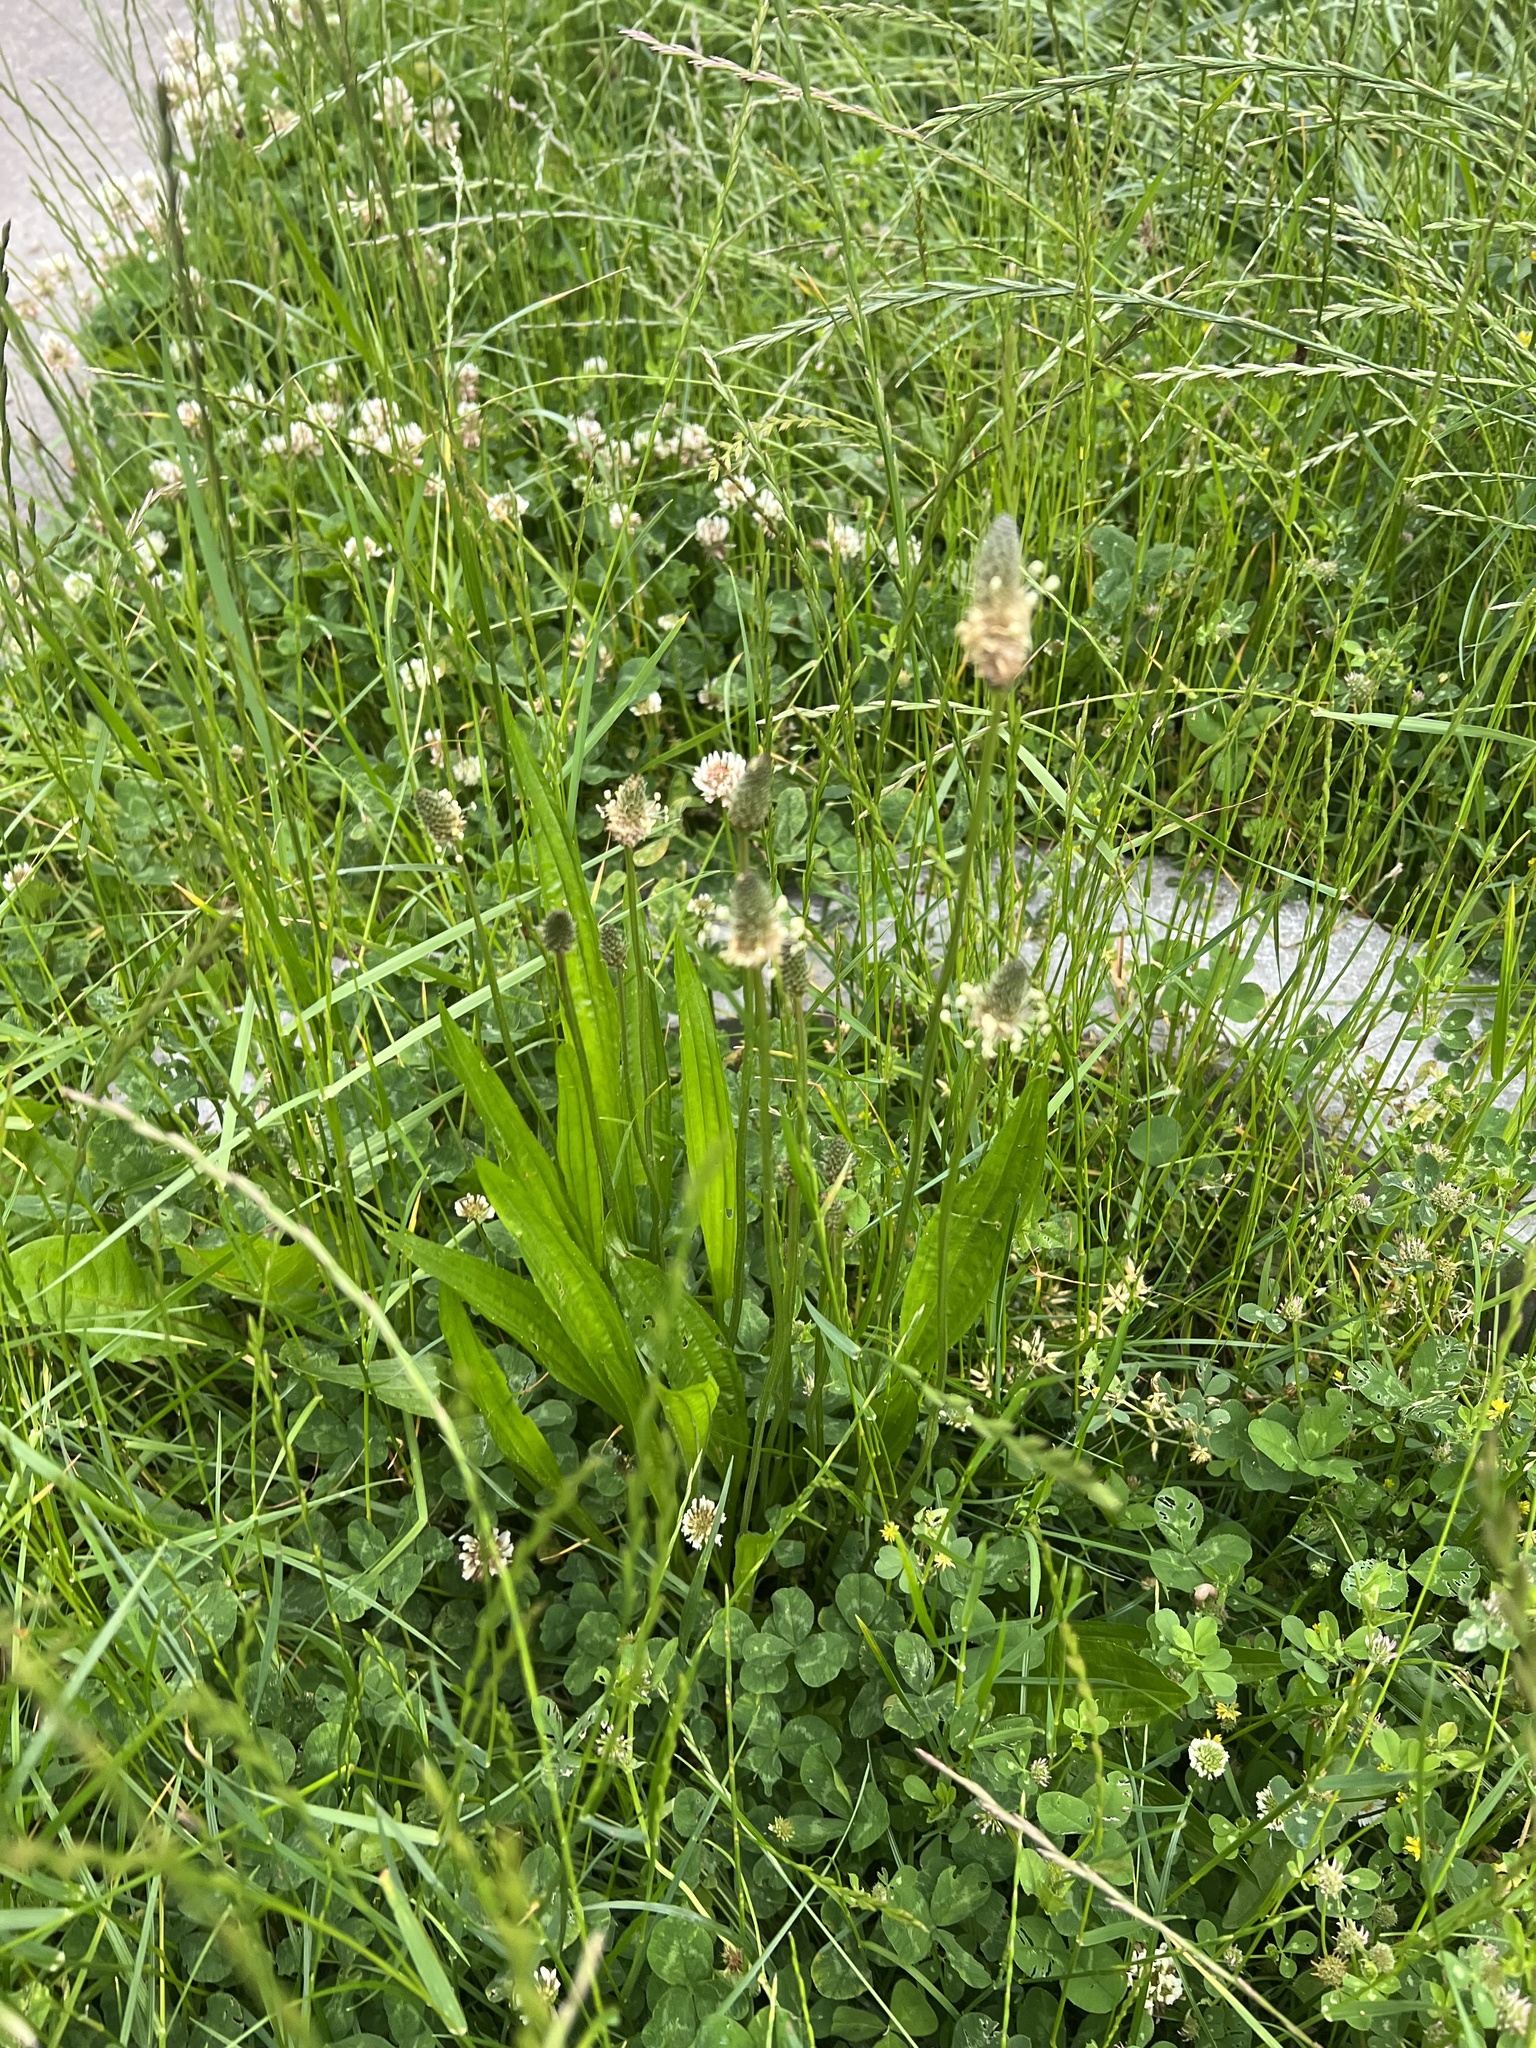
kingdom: Plantae
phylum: Tracheophyta
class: Magnoliopsida
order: Lamiales
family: Plantaginaceae
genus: Plantago
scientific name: Plantago lanceolata
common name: Ribwort plantain
